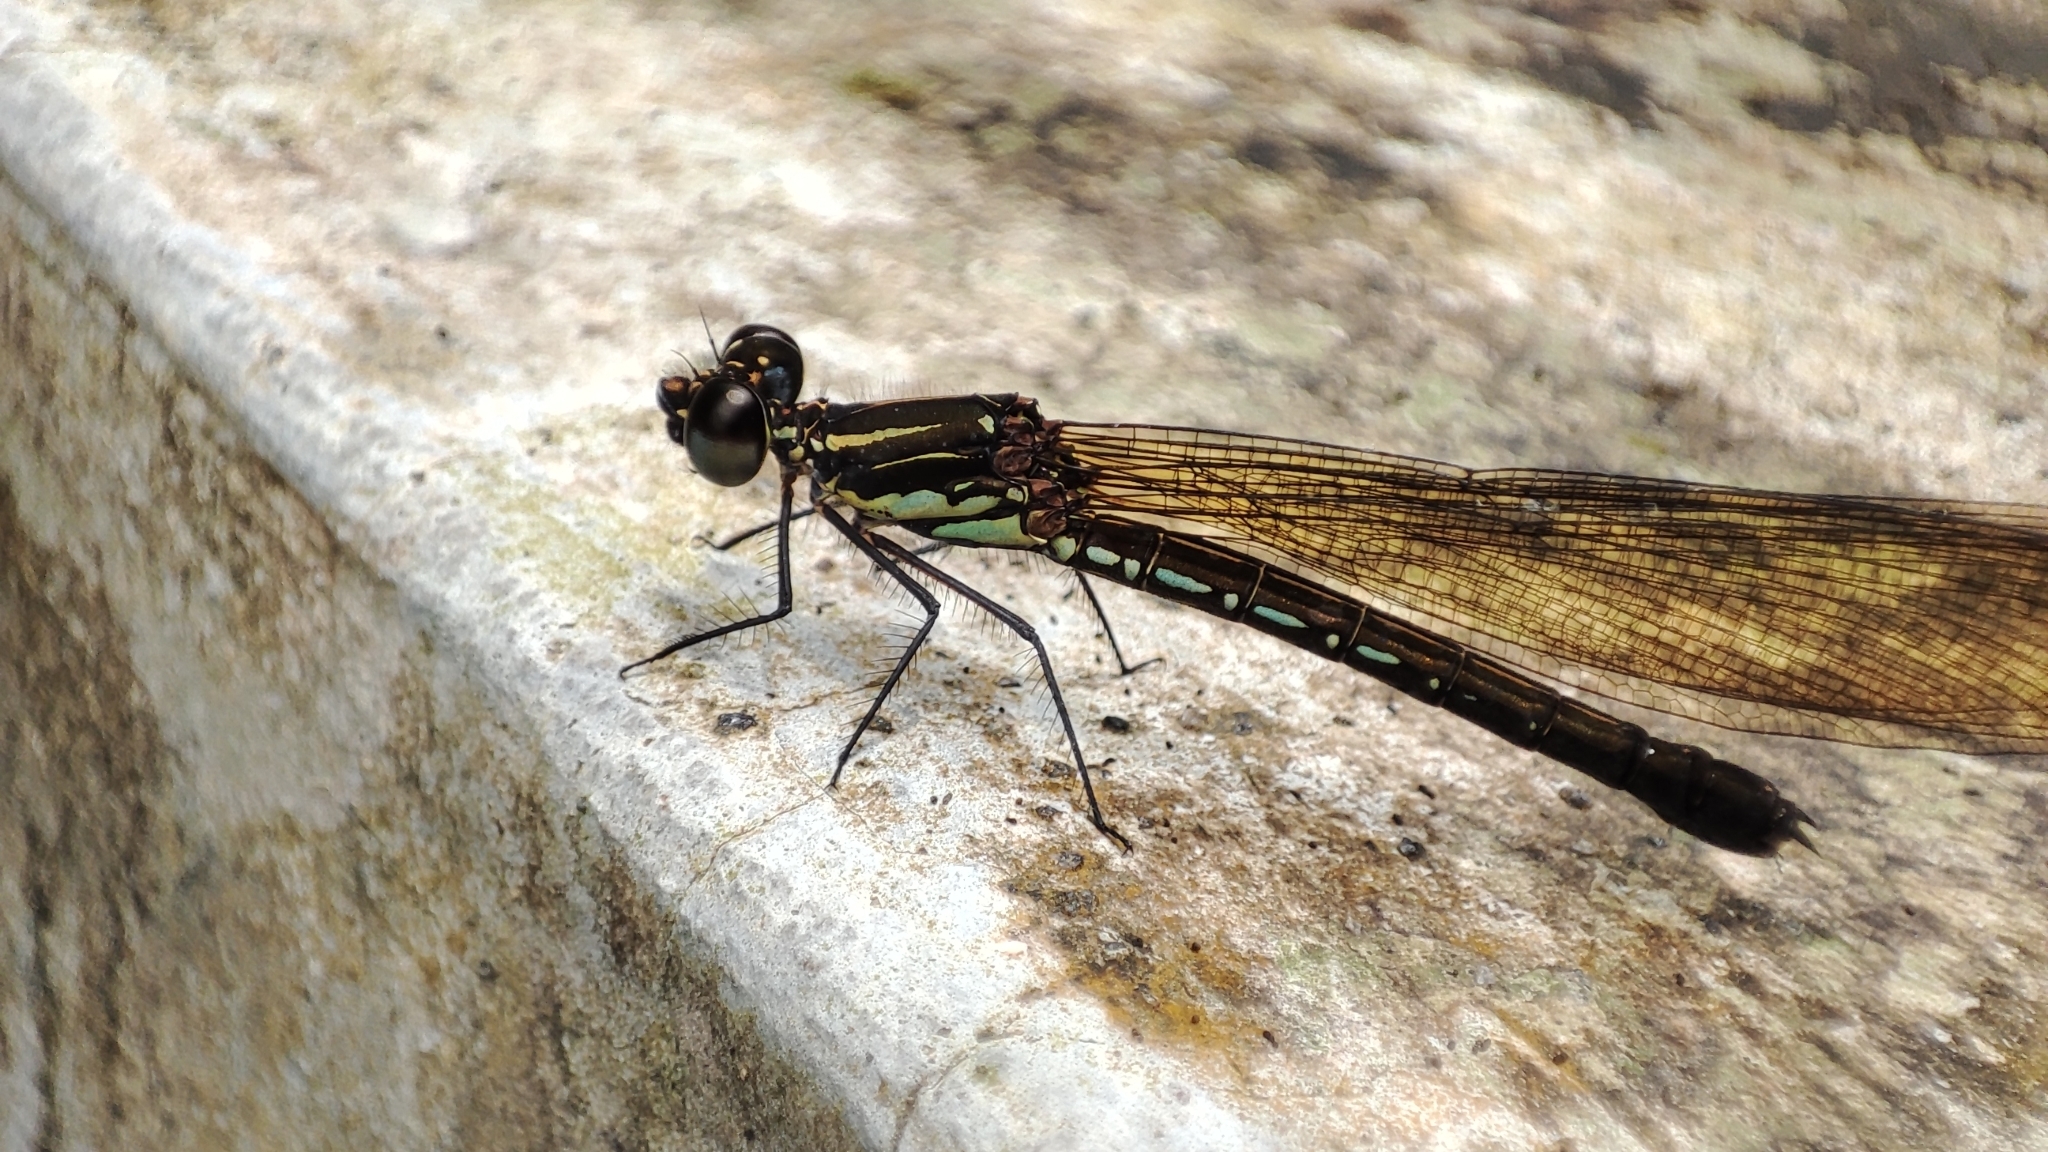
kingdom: Animalia
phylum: Arthropoda
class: Insecta
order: Odonata
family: Chlorocyphidae
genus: Heliocypha
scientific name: Heliocypha fenestrata
